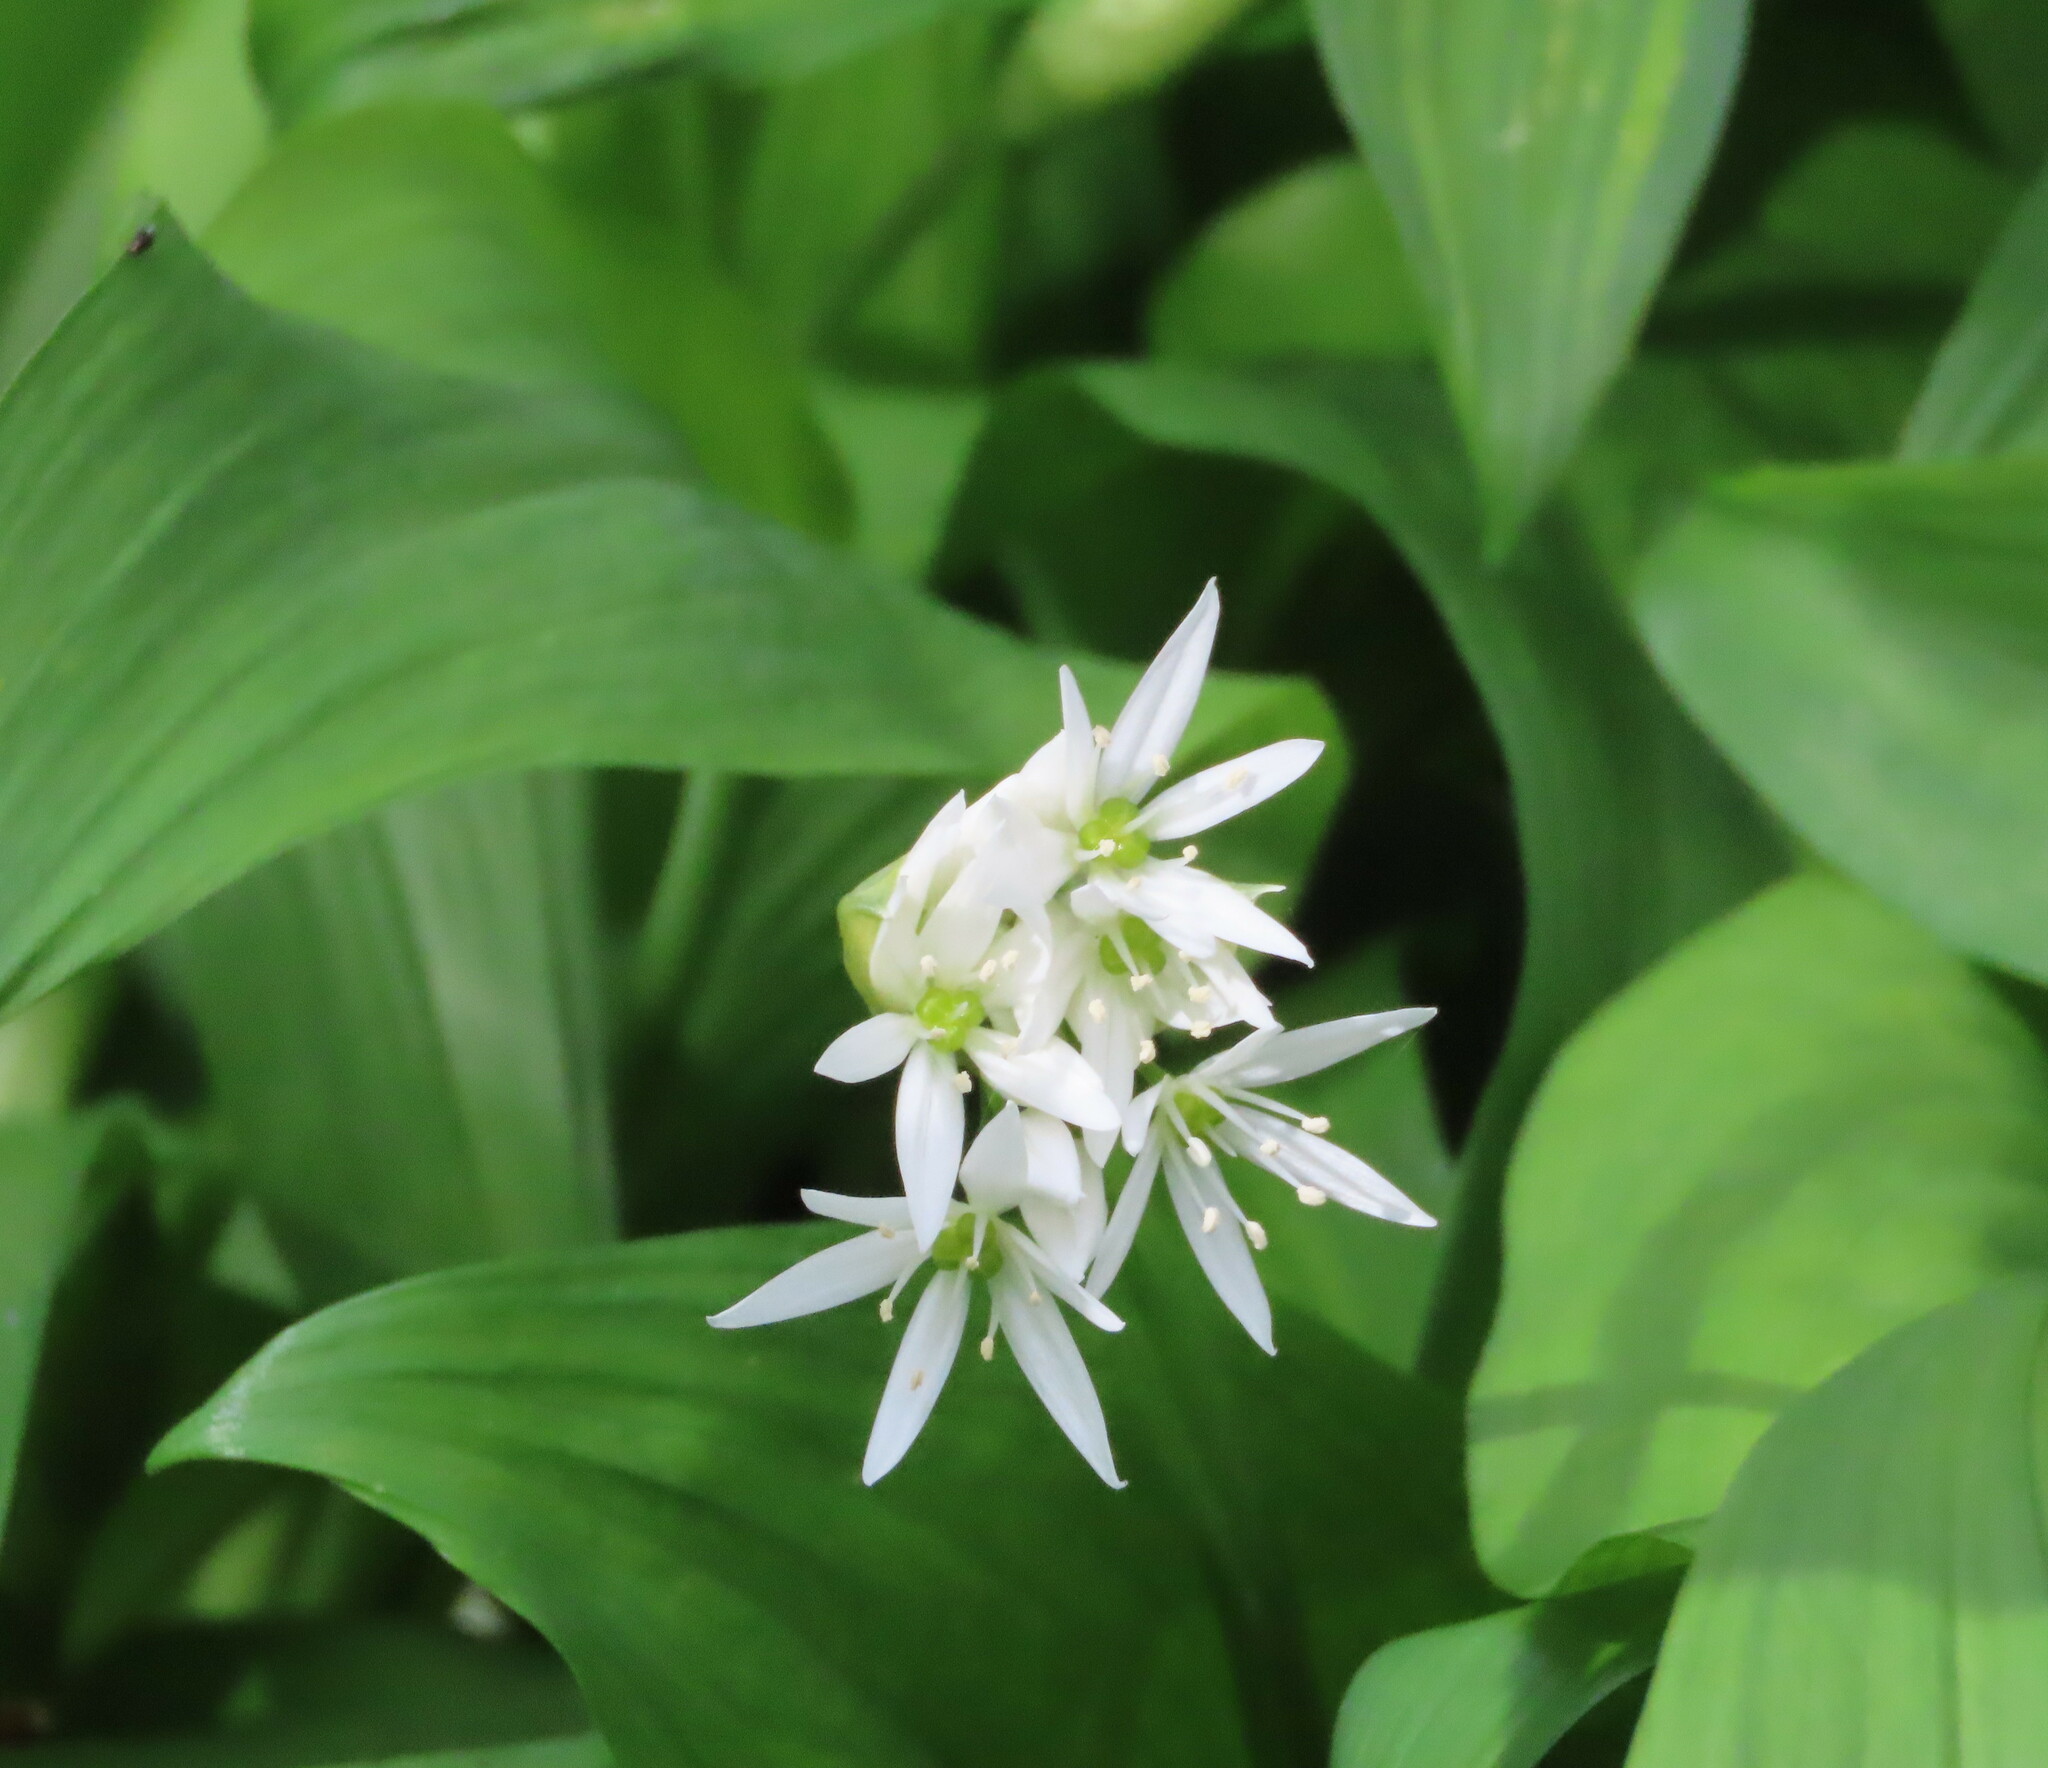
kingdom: Plantae
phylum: Tracheophyta
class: Liliopsida
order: Asparagales
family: Amaryllidaceae
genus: Allium
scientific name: Allium ursinum
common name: Ramsons
